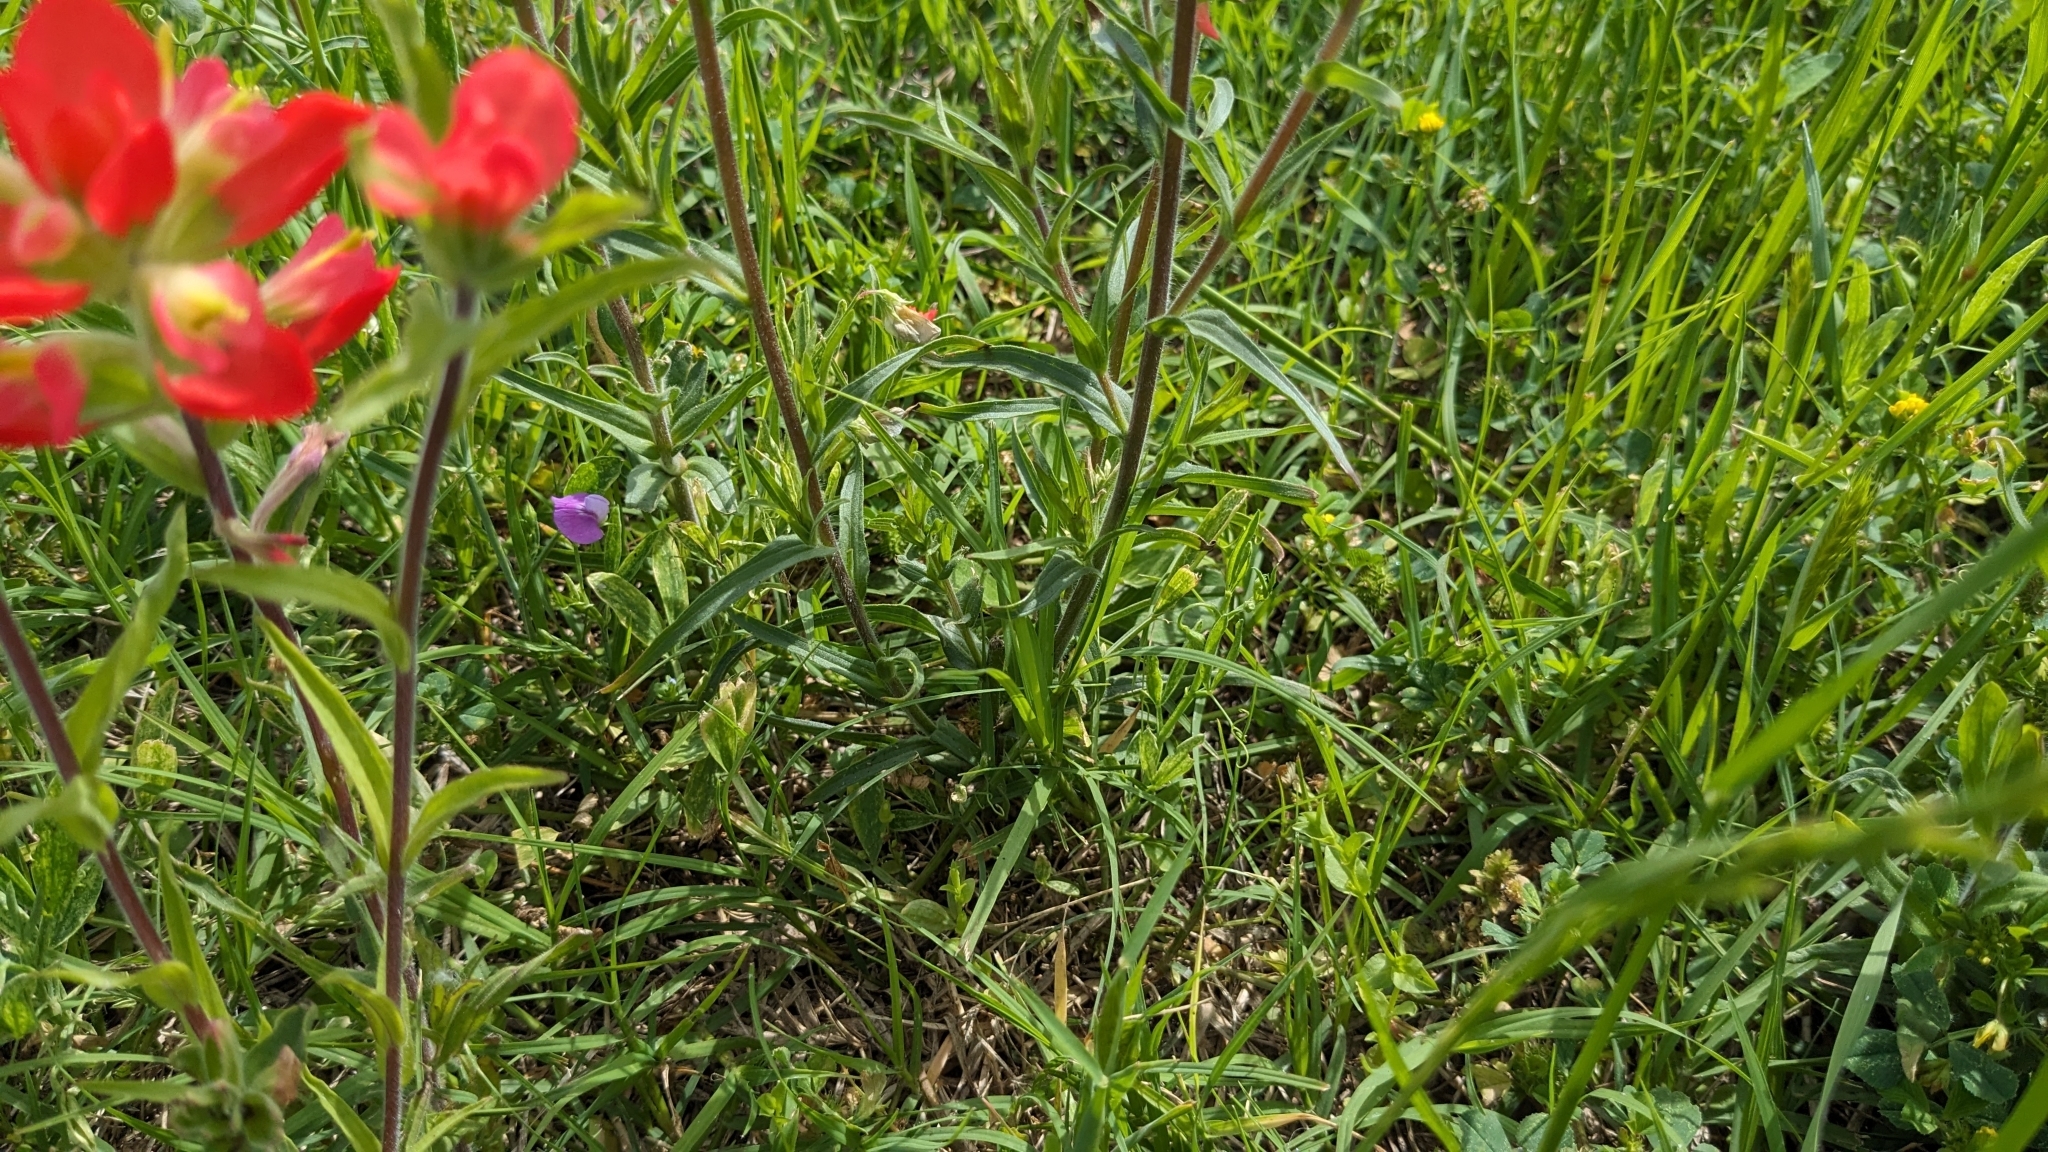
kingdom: Plantae
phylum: Tracheophyta
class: Magnoliopsida
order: Lamiales
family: Orobanchaceae
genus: Castilleja
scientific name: Castilleja indivisa
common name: Texas paintbrush
